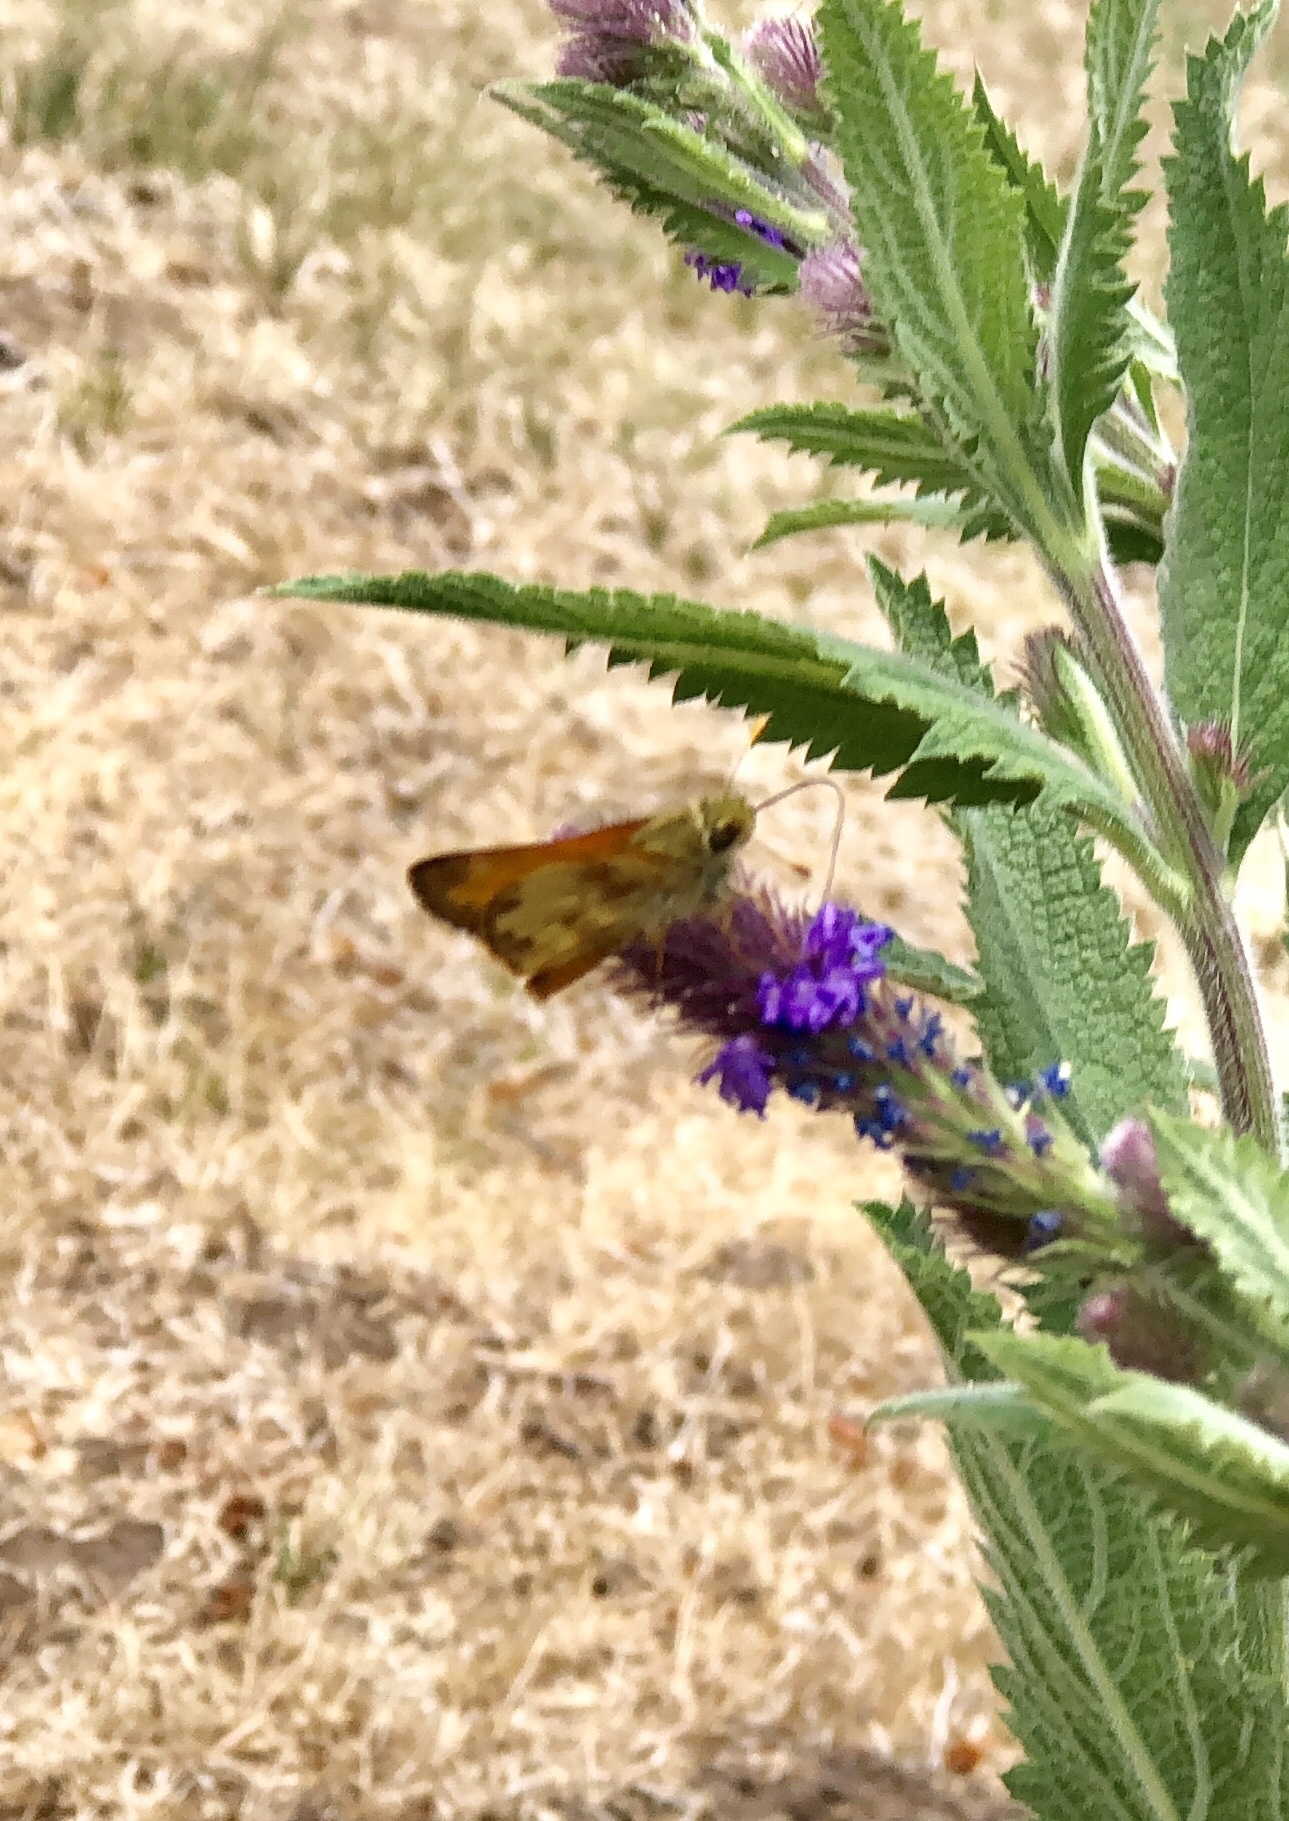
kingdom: Animalia
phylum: Arthropoda
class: Insecta
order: Lepidoptera
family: Hesperiidae
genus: Lon
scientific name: Lon taxiles
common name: Taxiles skipper
